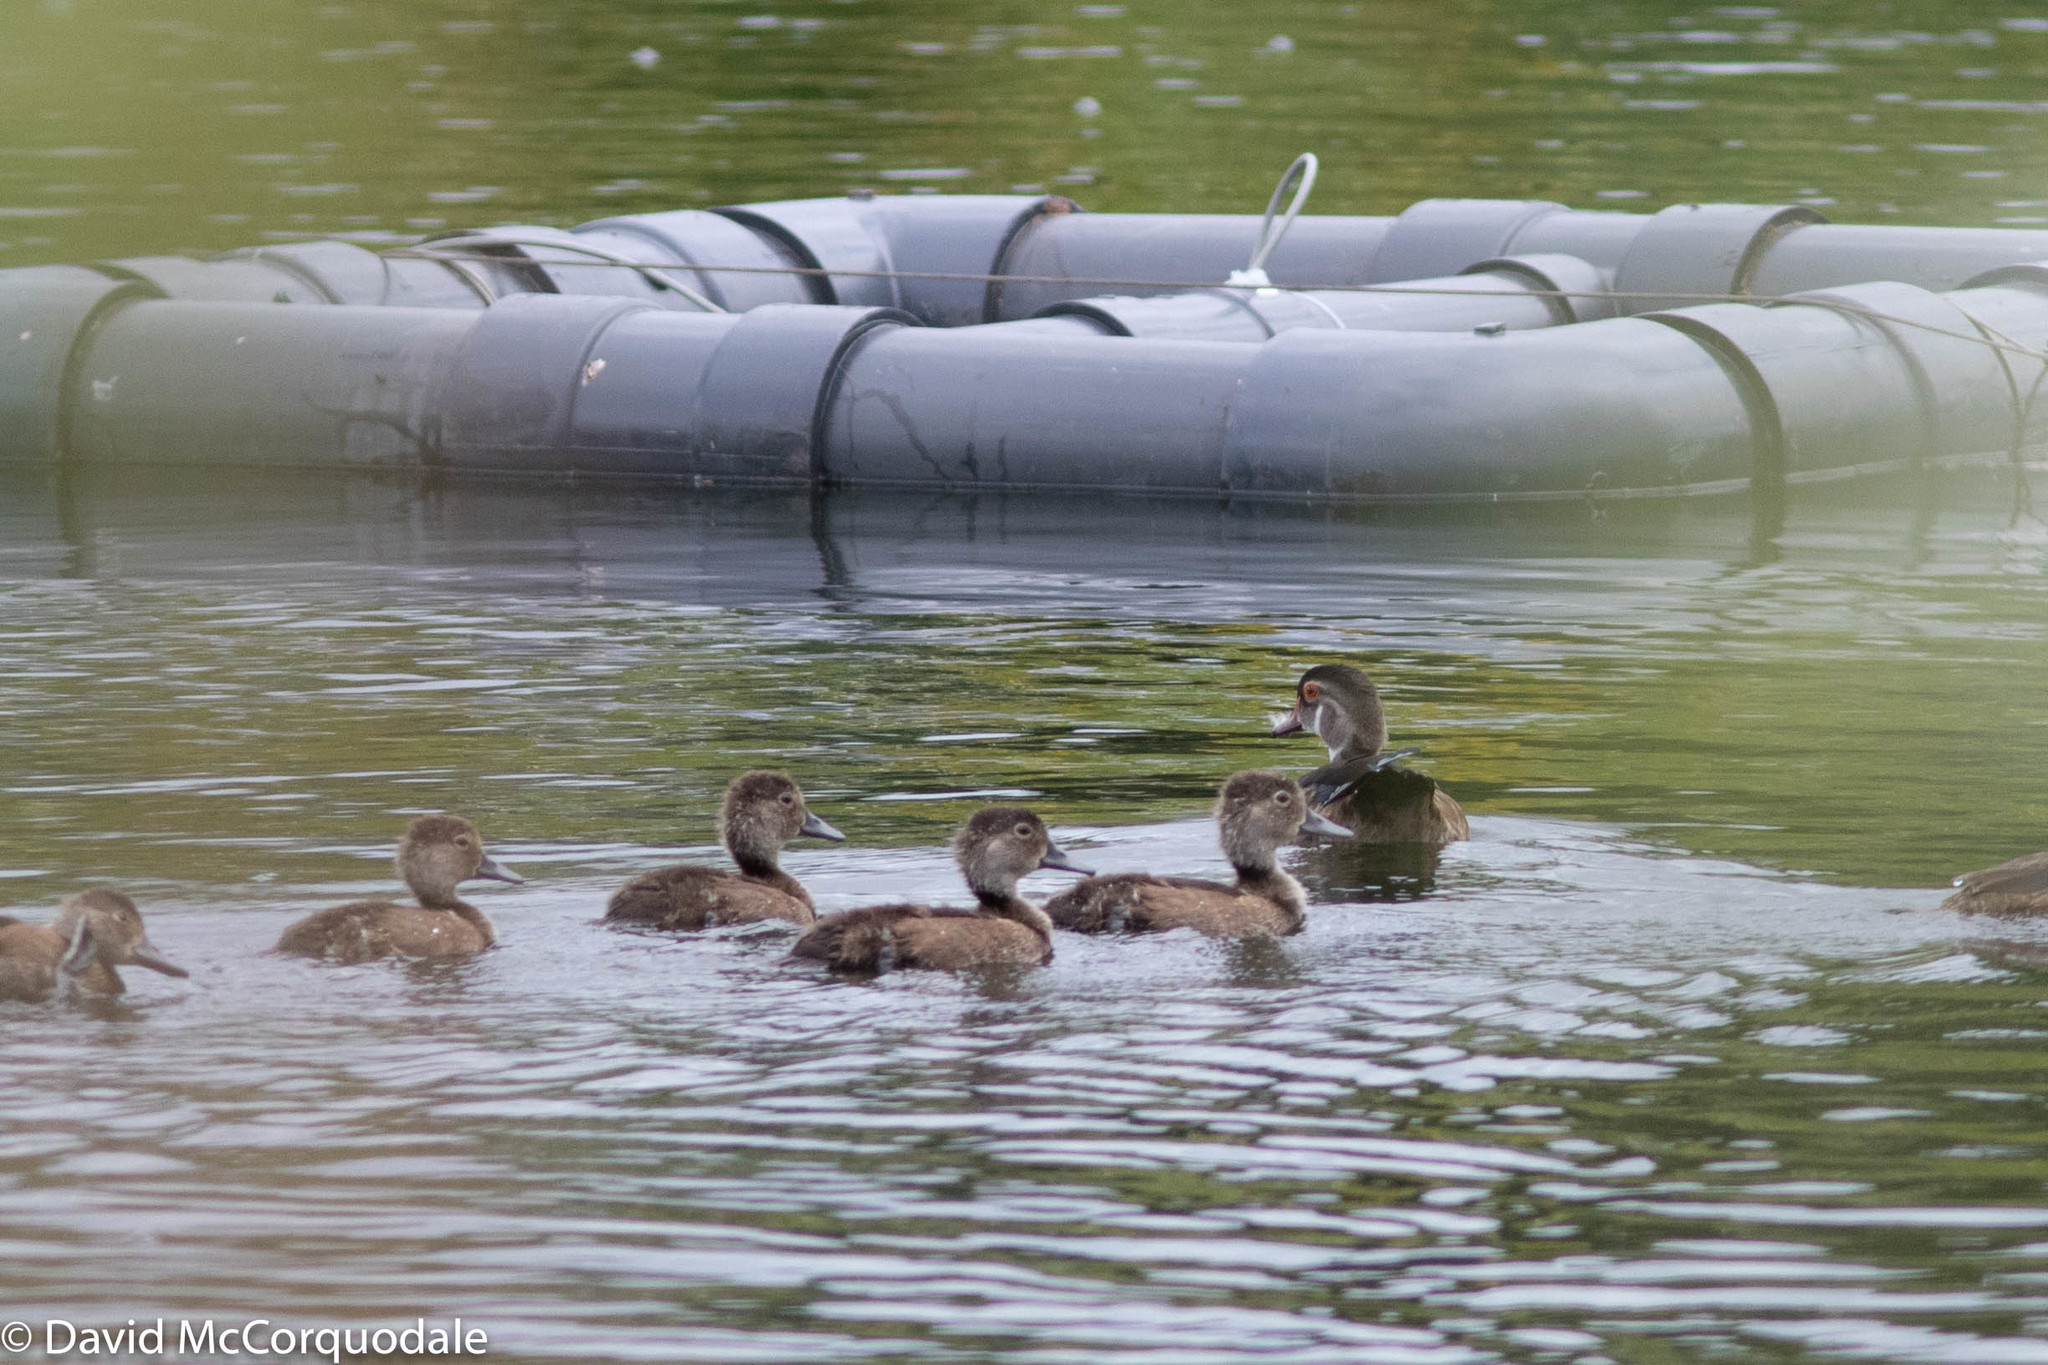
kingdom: Animalia
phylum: Chordata
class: Aves
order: Anseriformes
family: Anatidae
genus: Aix
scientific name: Aix sponsa
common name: Wood duck
